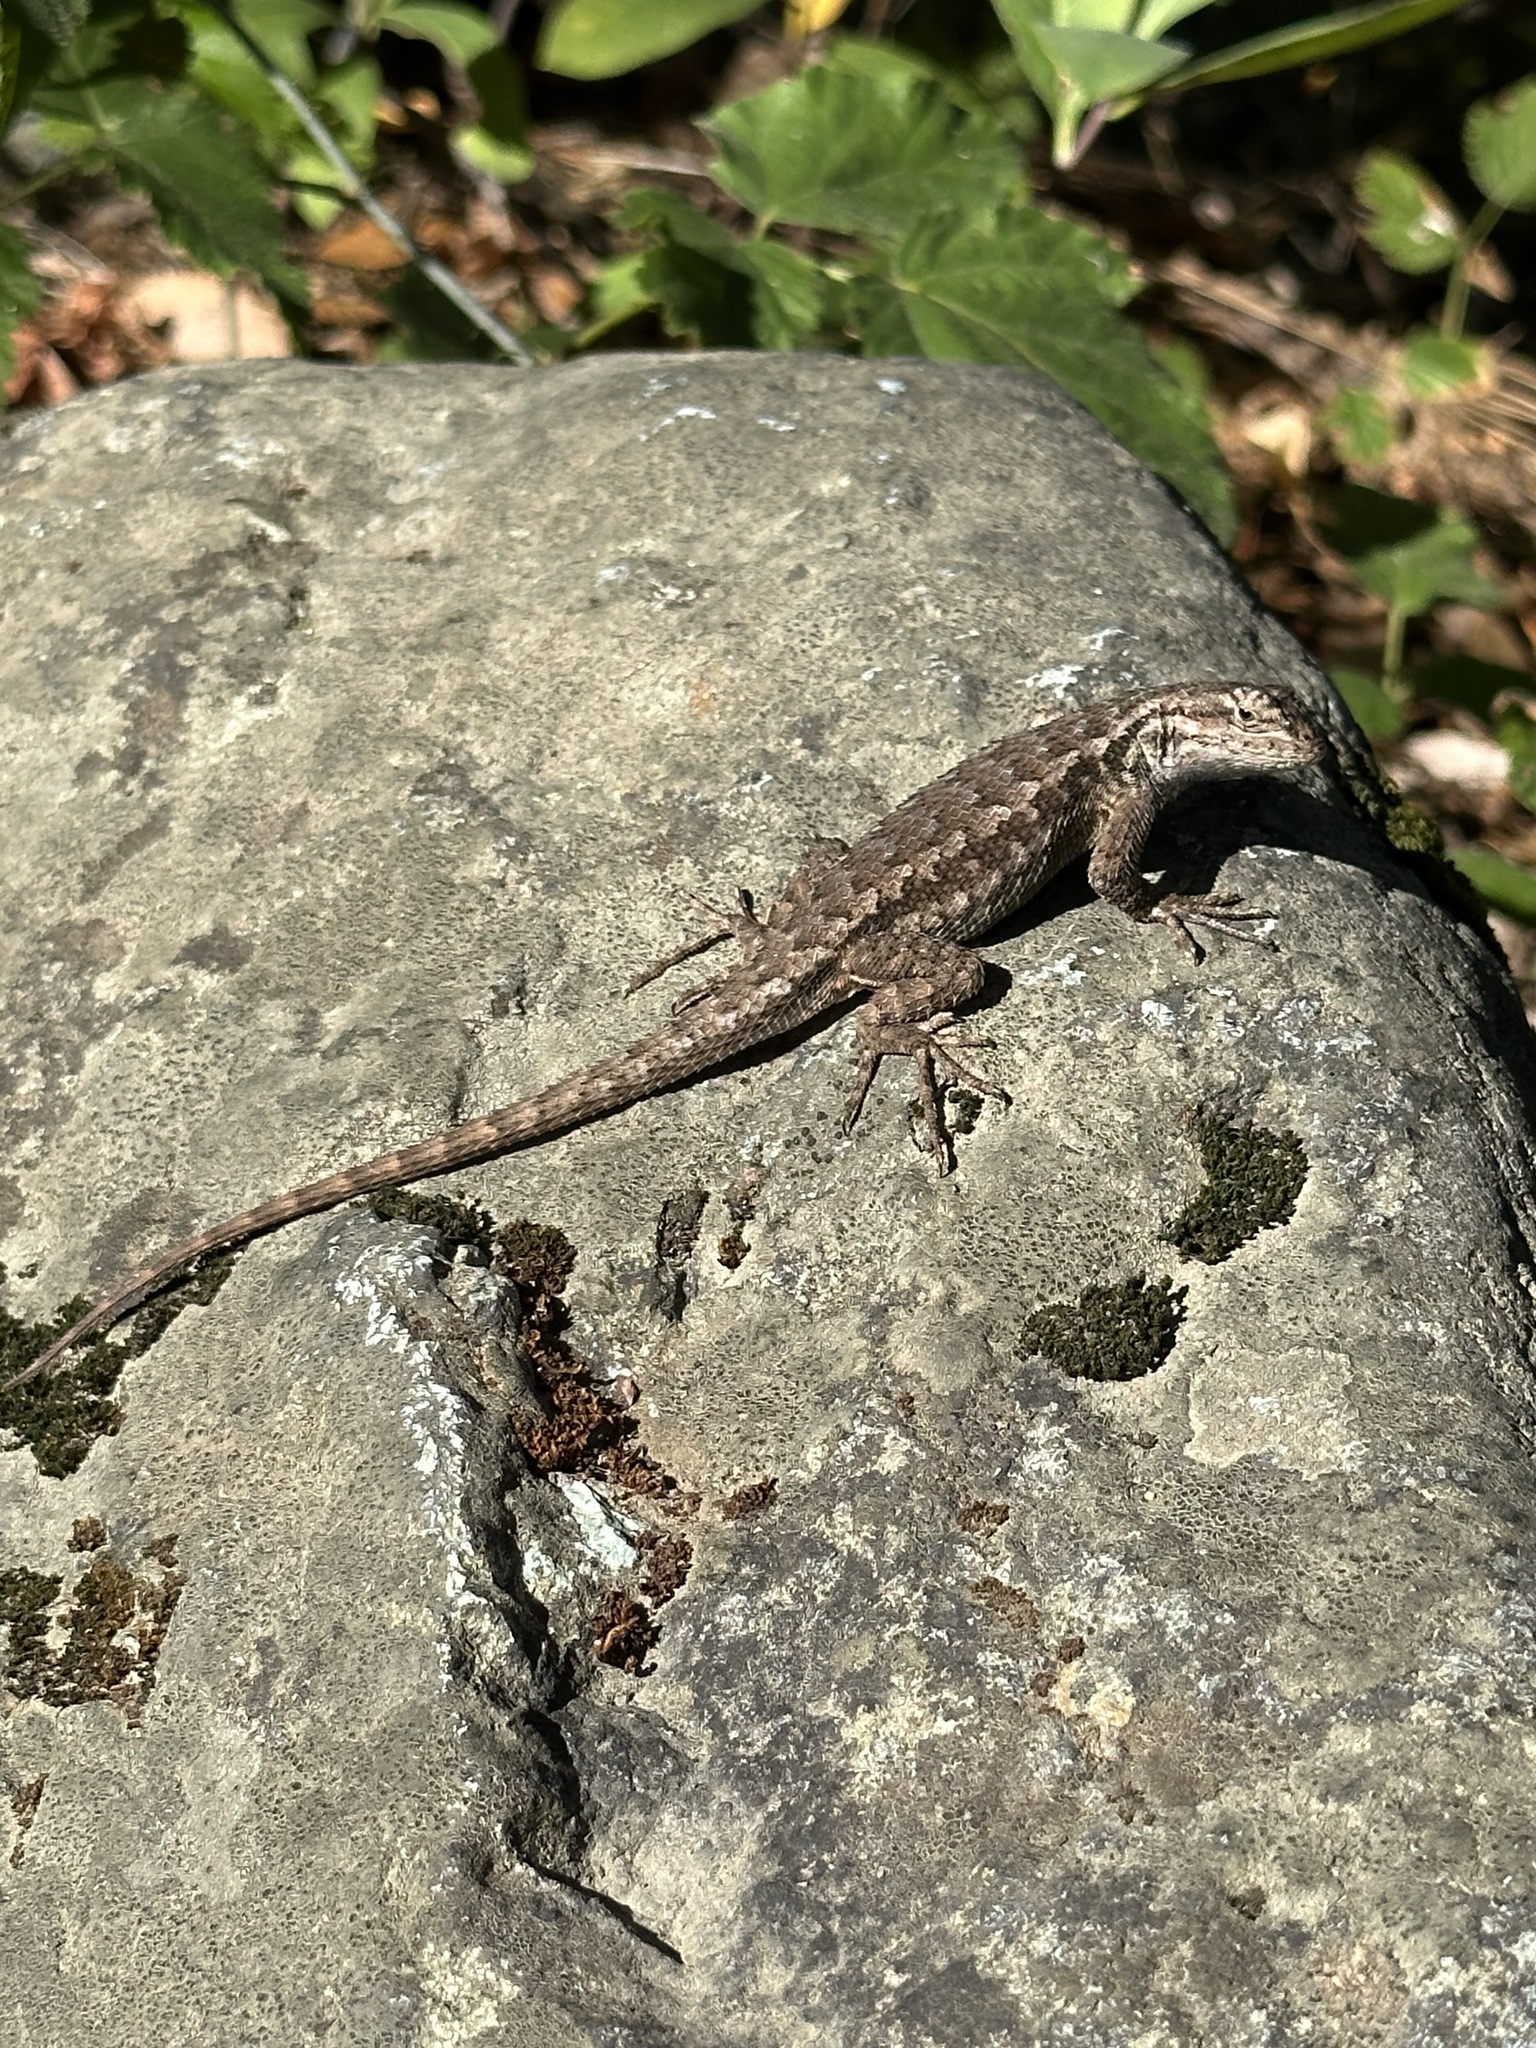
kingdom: Animalia
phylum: Chordata
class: Squamata
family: Phrynosomatidae
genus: Sceloporus
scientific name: Sceloporus occidentalis
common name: Western fence lizard
